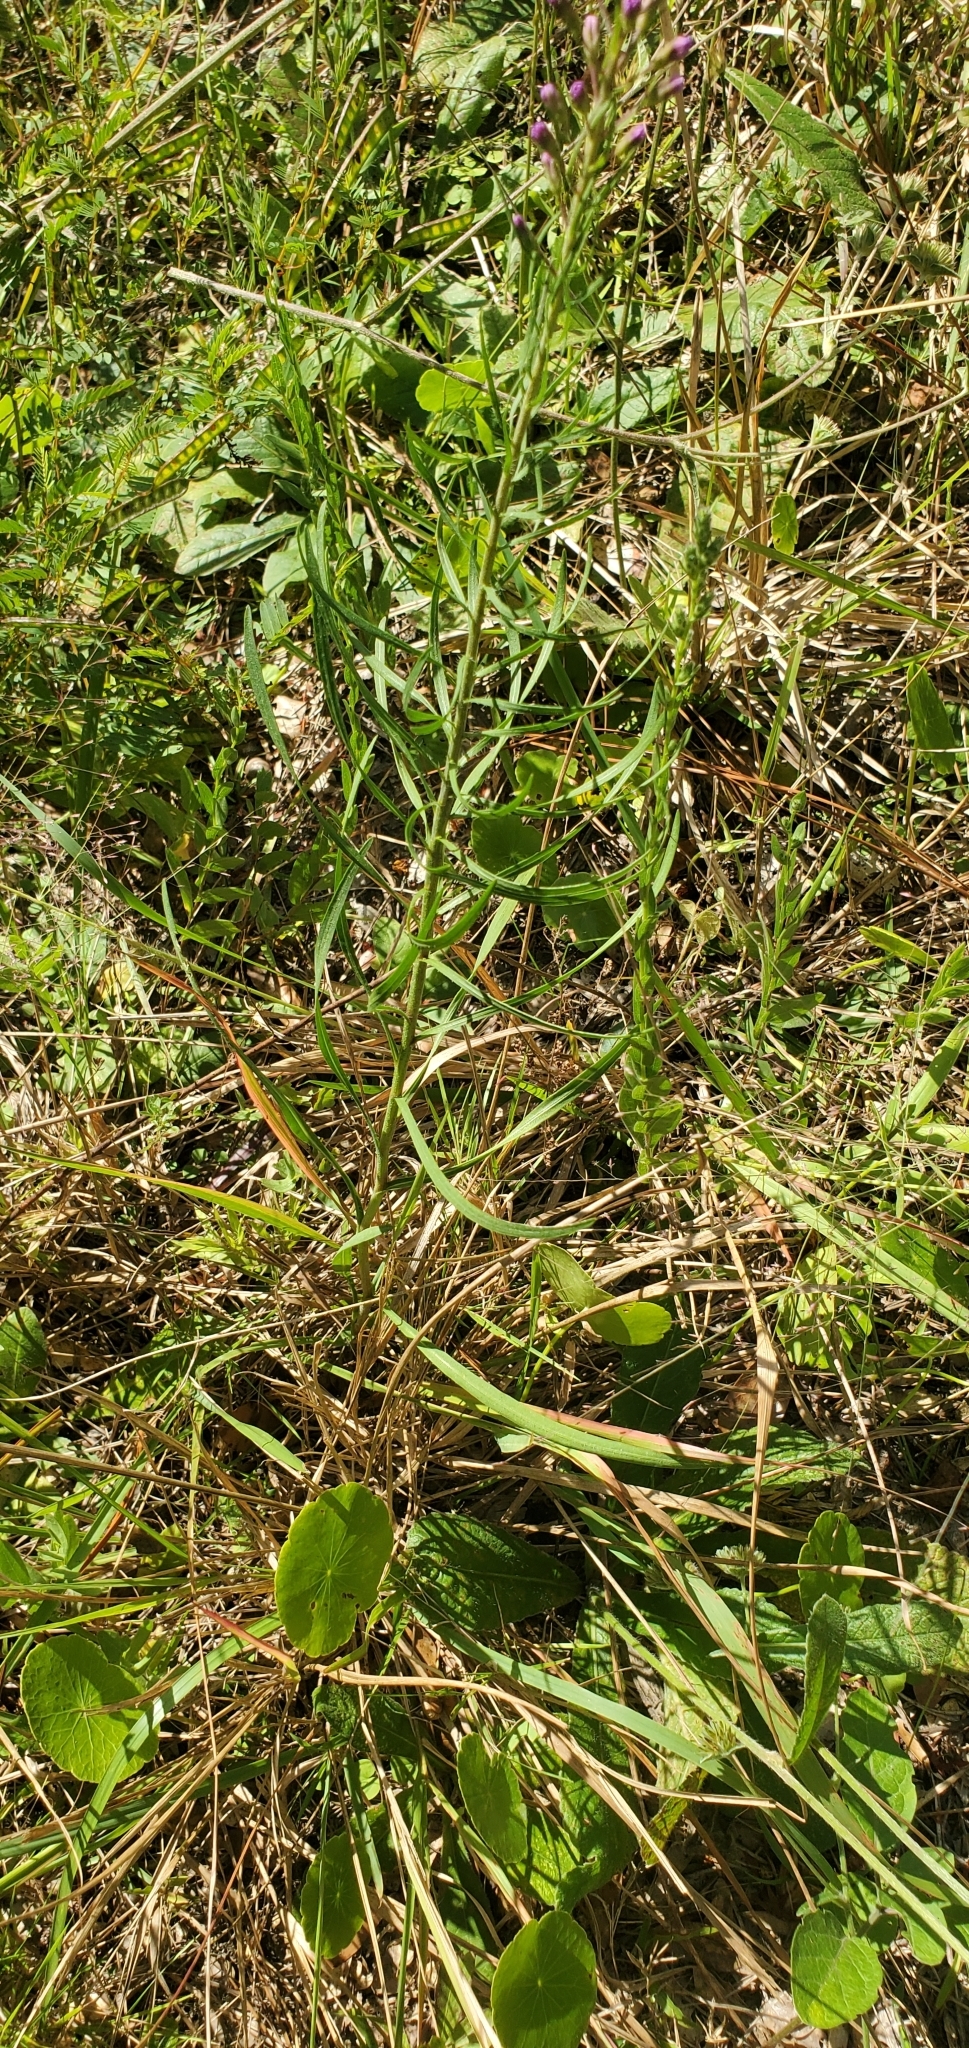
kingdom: Plantae
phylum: Tracheophyta
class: Magnoliopsida
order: Asterales
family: Asteraceae
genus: Liatris
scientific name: Liatris gracilis
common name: Slender gayfeather
